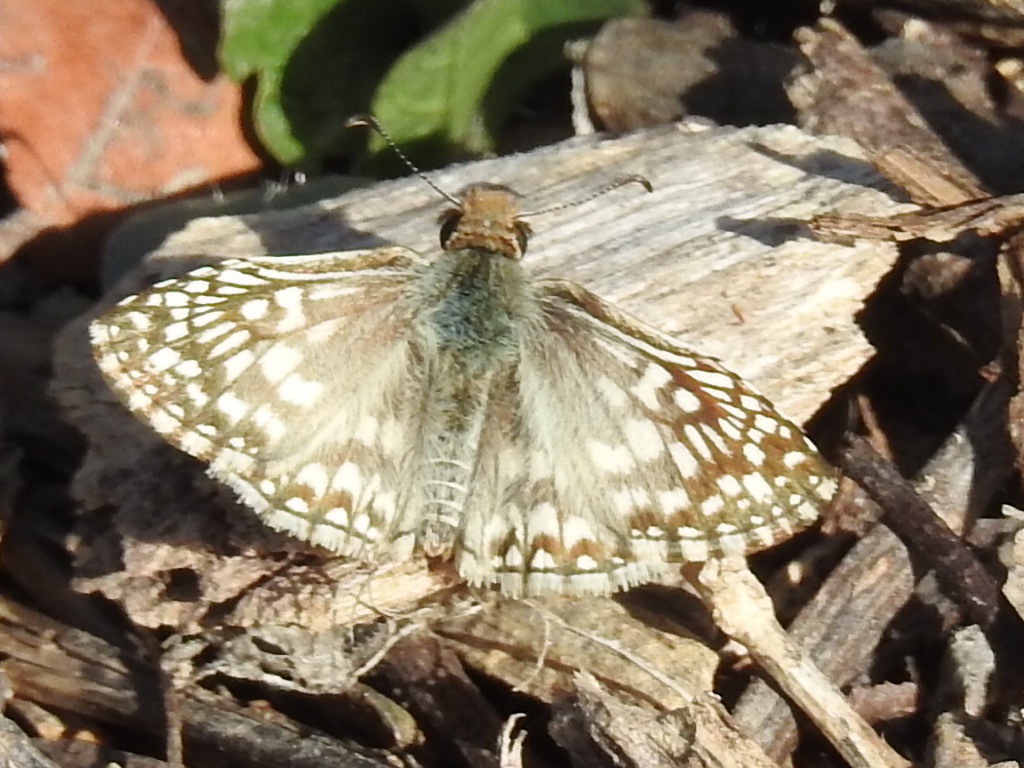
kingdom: Animalia
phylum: Arthropoda
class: Insecta
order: Lepidoptera
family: Hesperiidae
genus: Pyrgus
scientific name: Pyrgus oileus
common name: Tropical checkered-skipper
